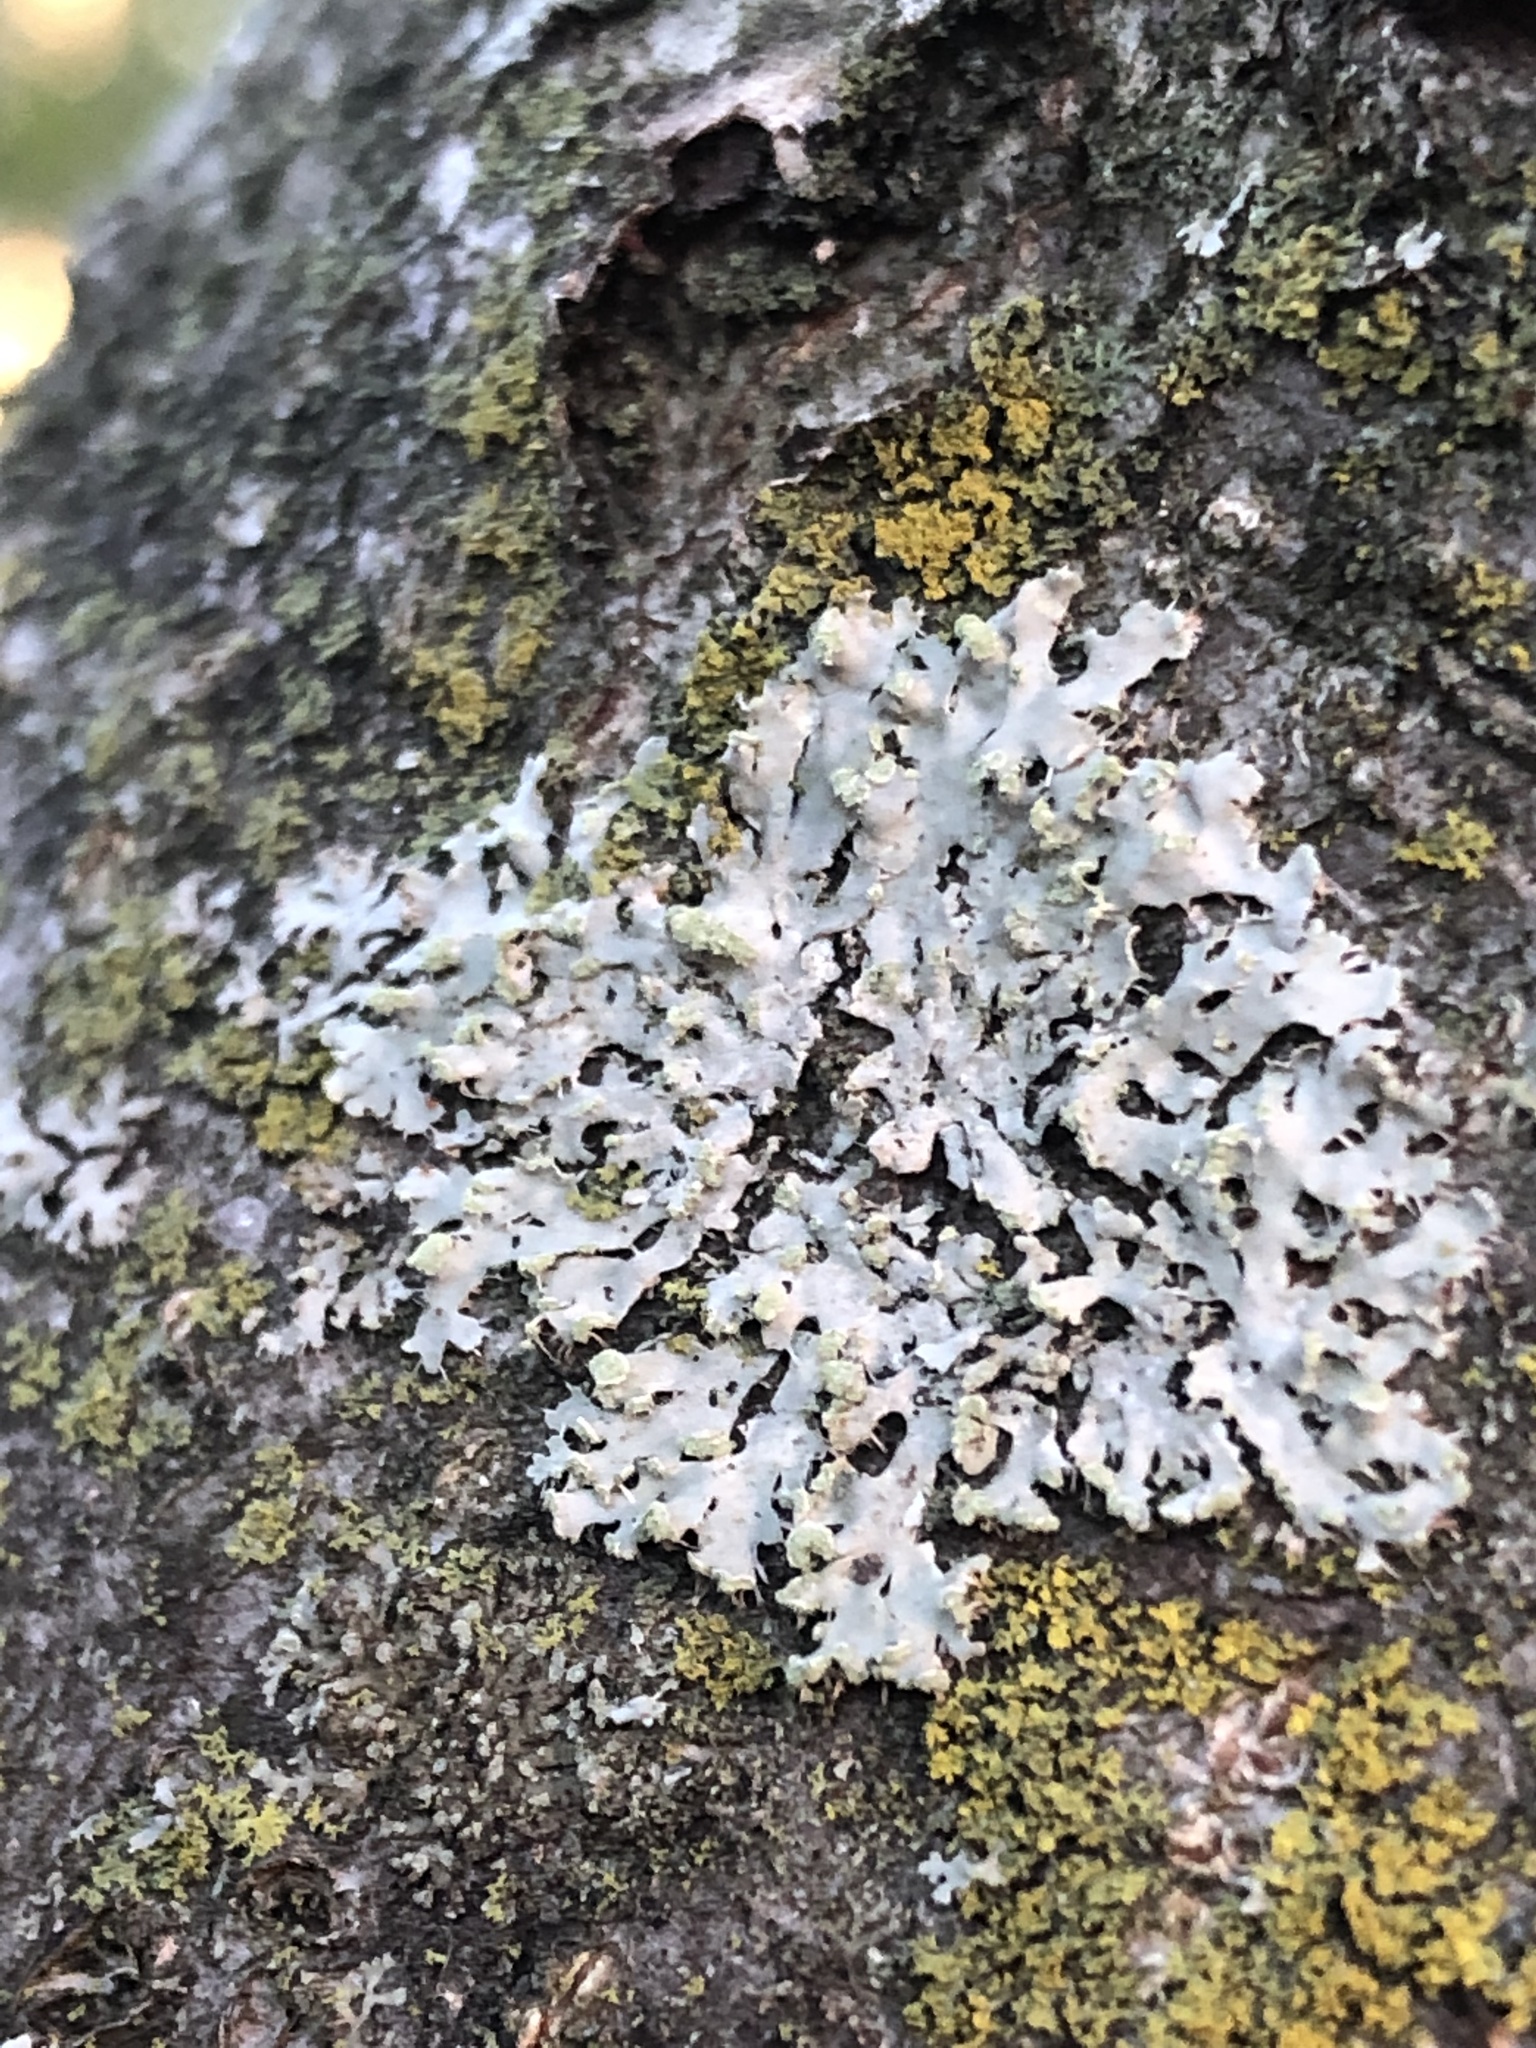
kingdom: Fungi
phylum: Ascomycota
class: Lecanoromycetes
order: Caliciales
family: Physciaceae
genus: Physciella
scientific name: Physciella melanchra
